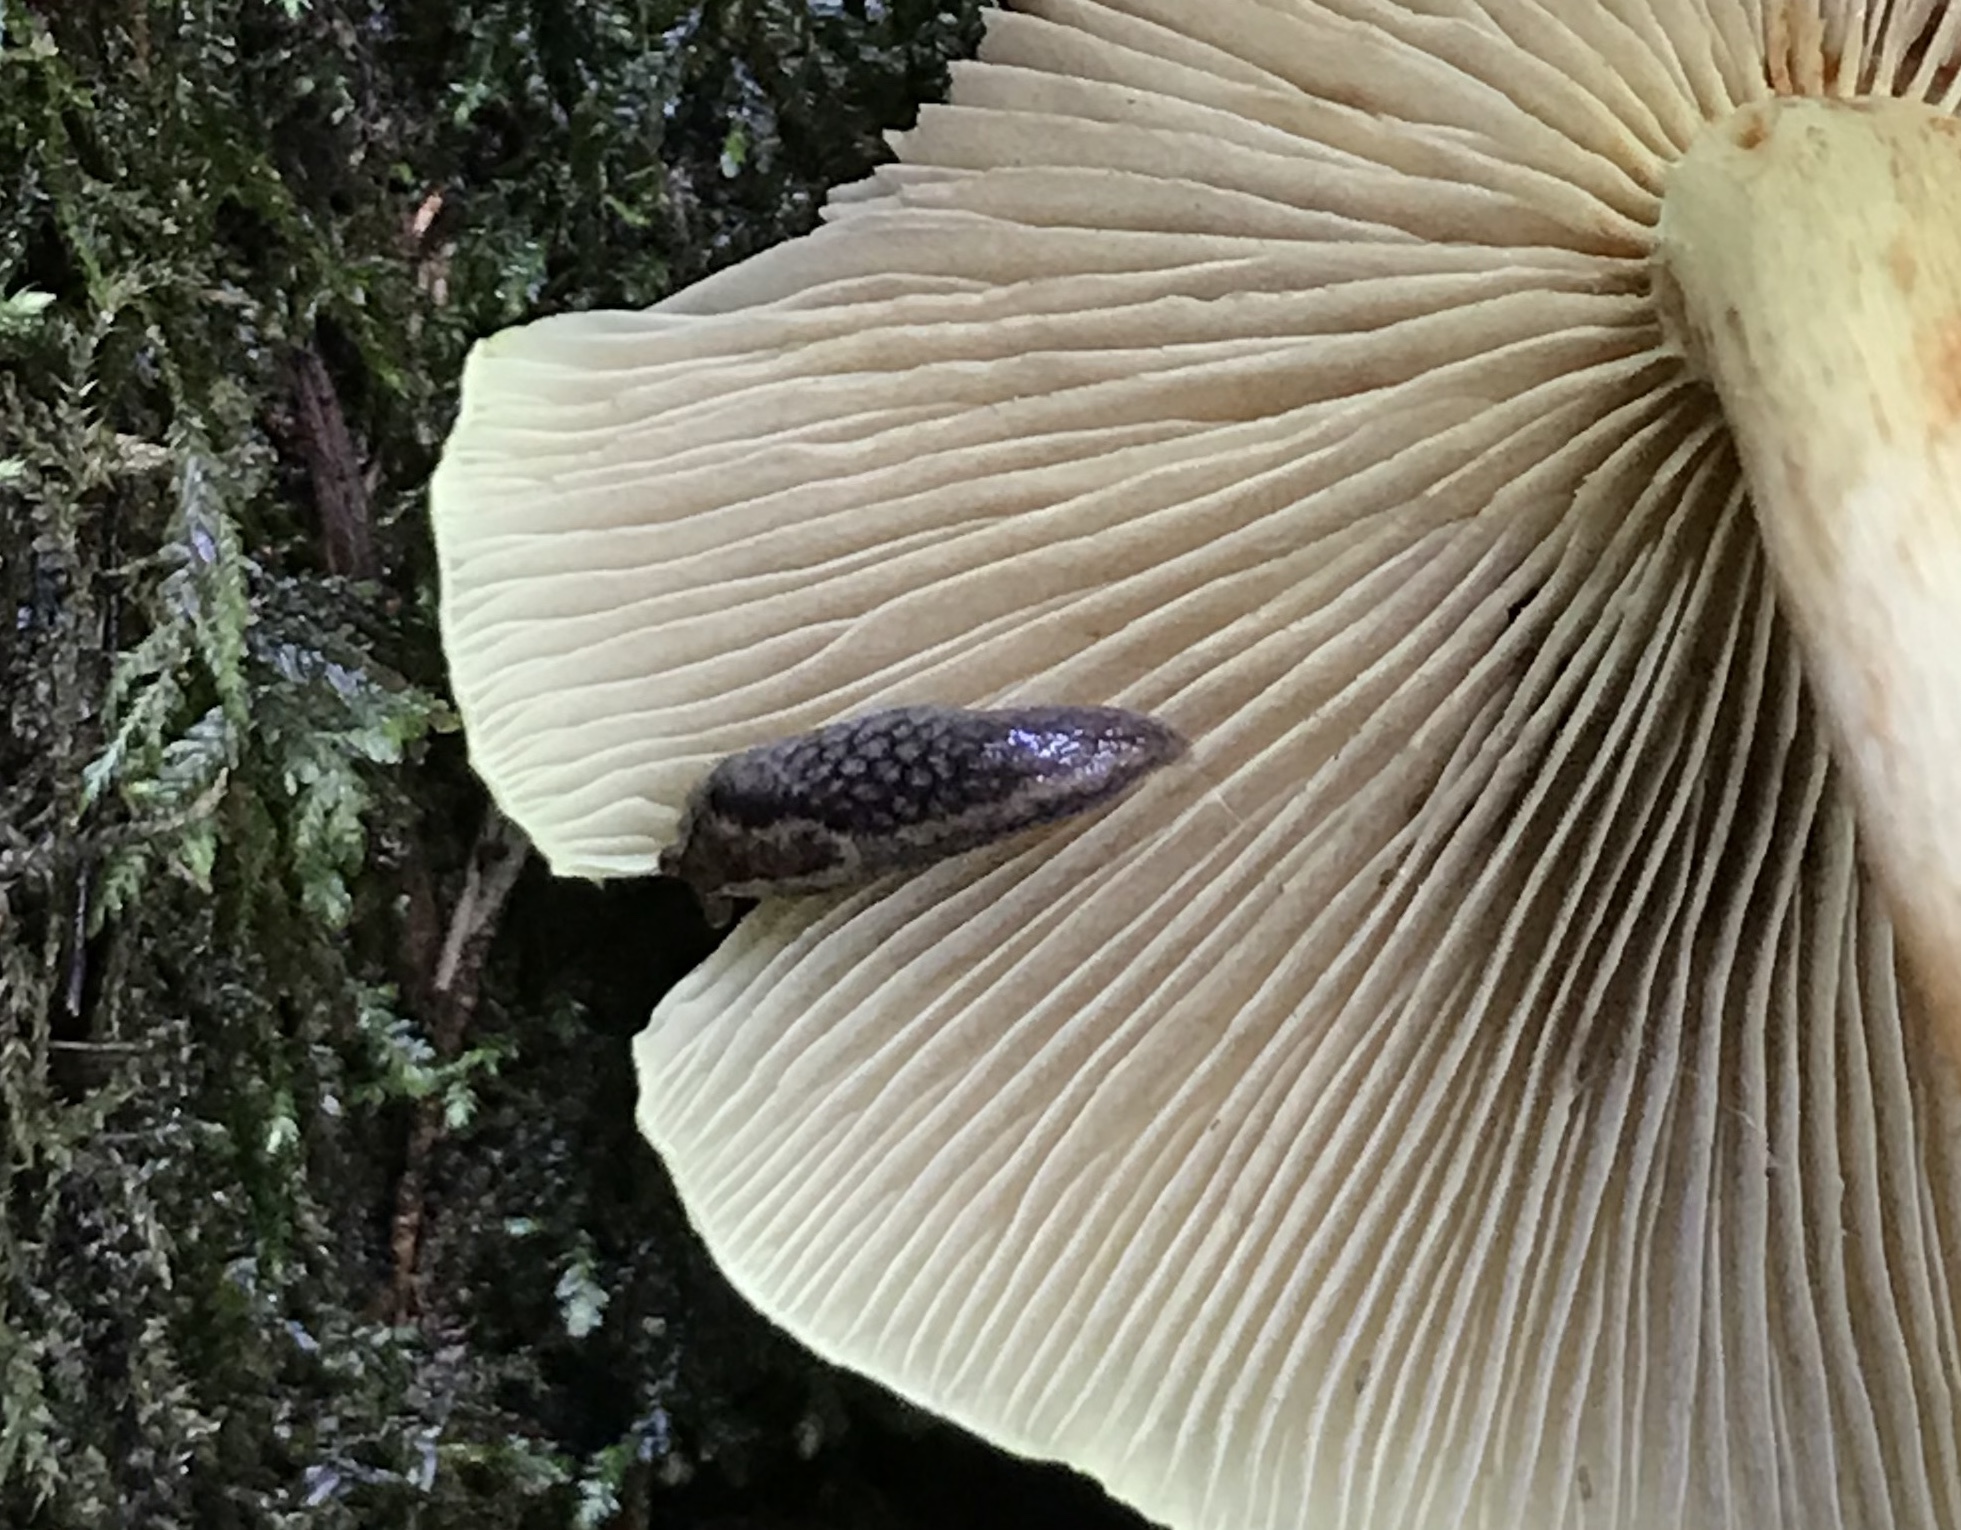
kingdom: Animalia
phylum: Mollusca
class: Gastropoda
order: Stylommatophora
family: Ariolimacidae
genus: Prophysaon
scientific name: Prophysaon andersonii
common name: Reticulate taildropper
